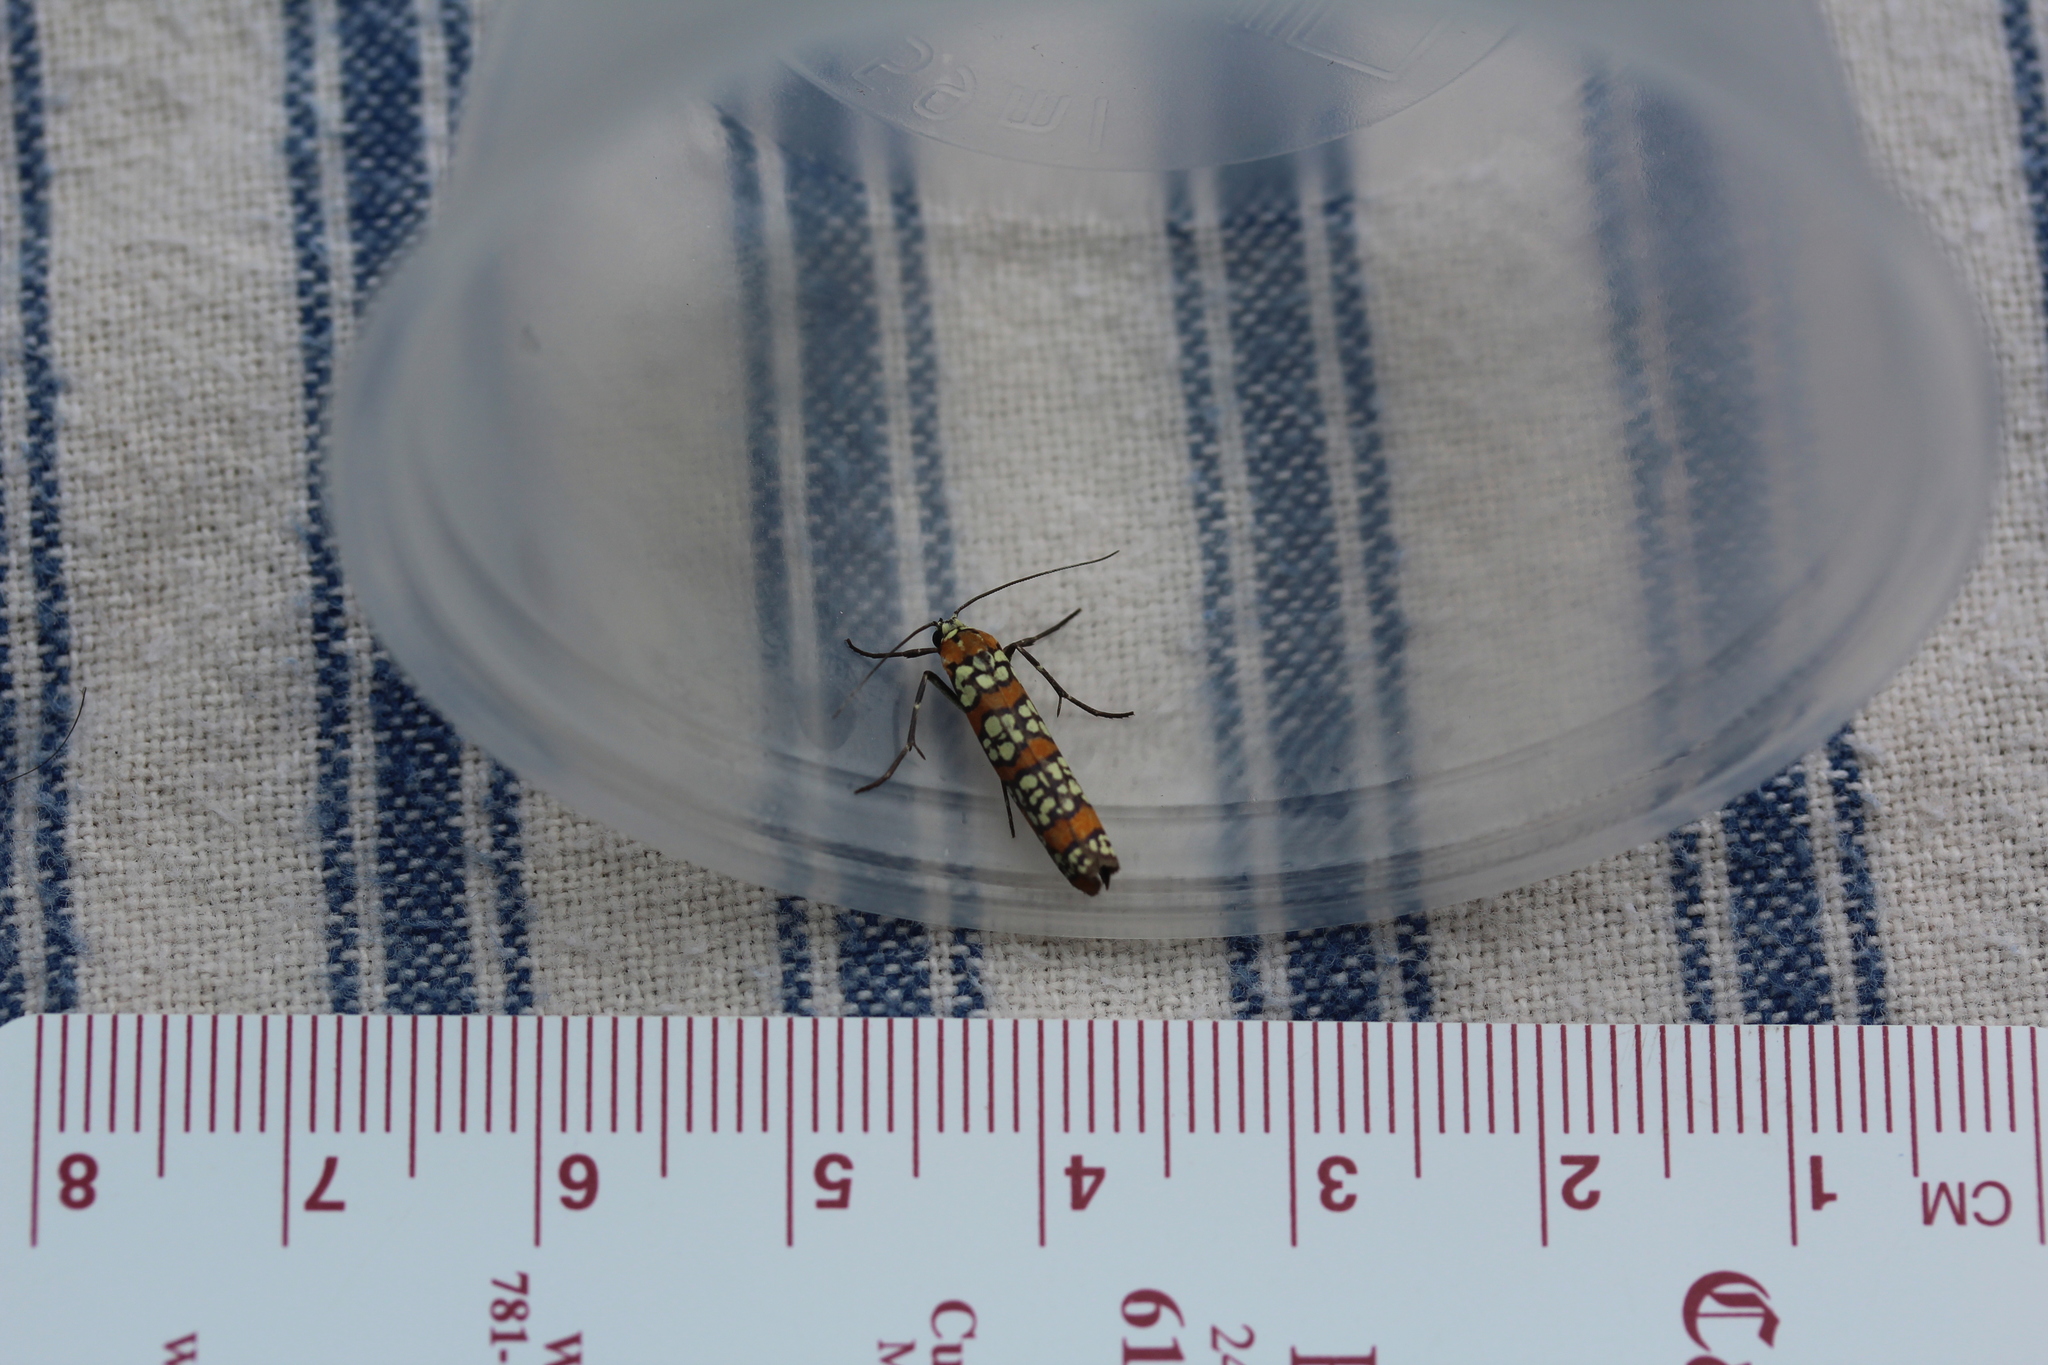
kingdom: Animalia
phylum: Arthropoda
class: Insecta
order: Lepidoptera
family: Attevidae
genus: Atteva
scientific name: Atteva punctella
